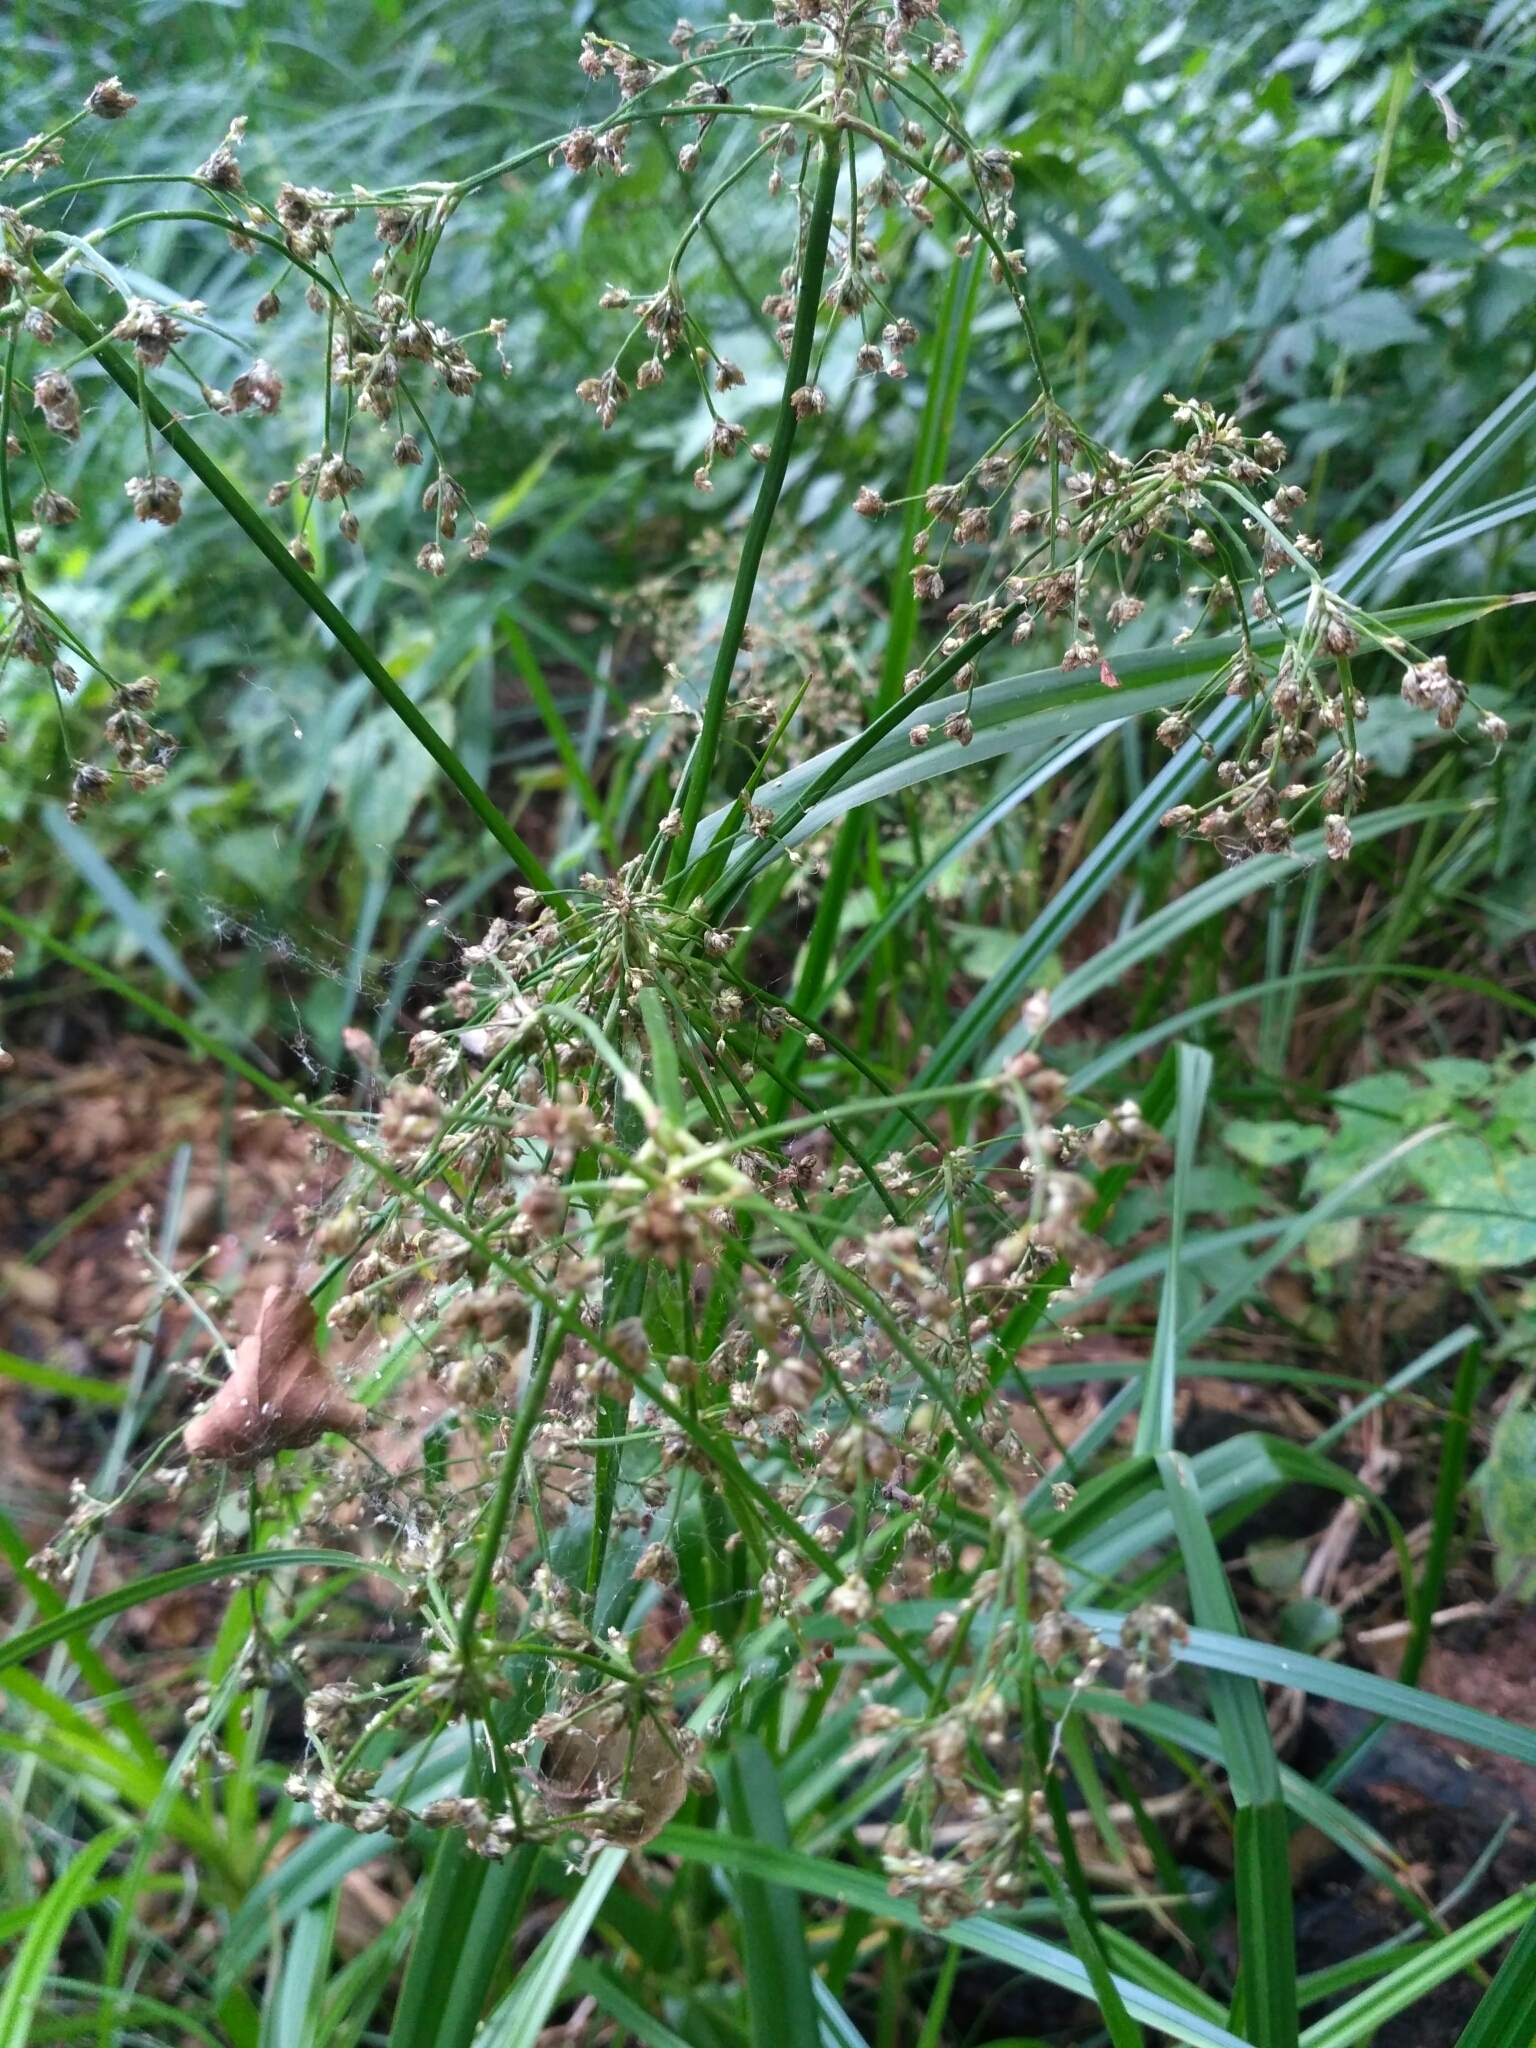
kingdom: Plantae
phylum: Tracheophyta
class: Liliopsida
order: Poales
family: Cyperaceae
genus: Scirpus
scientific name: Scirpus sylvaticus
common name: Wood club-rush
